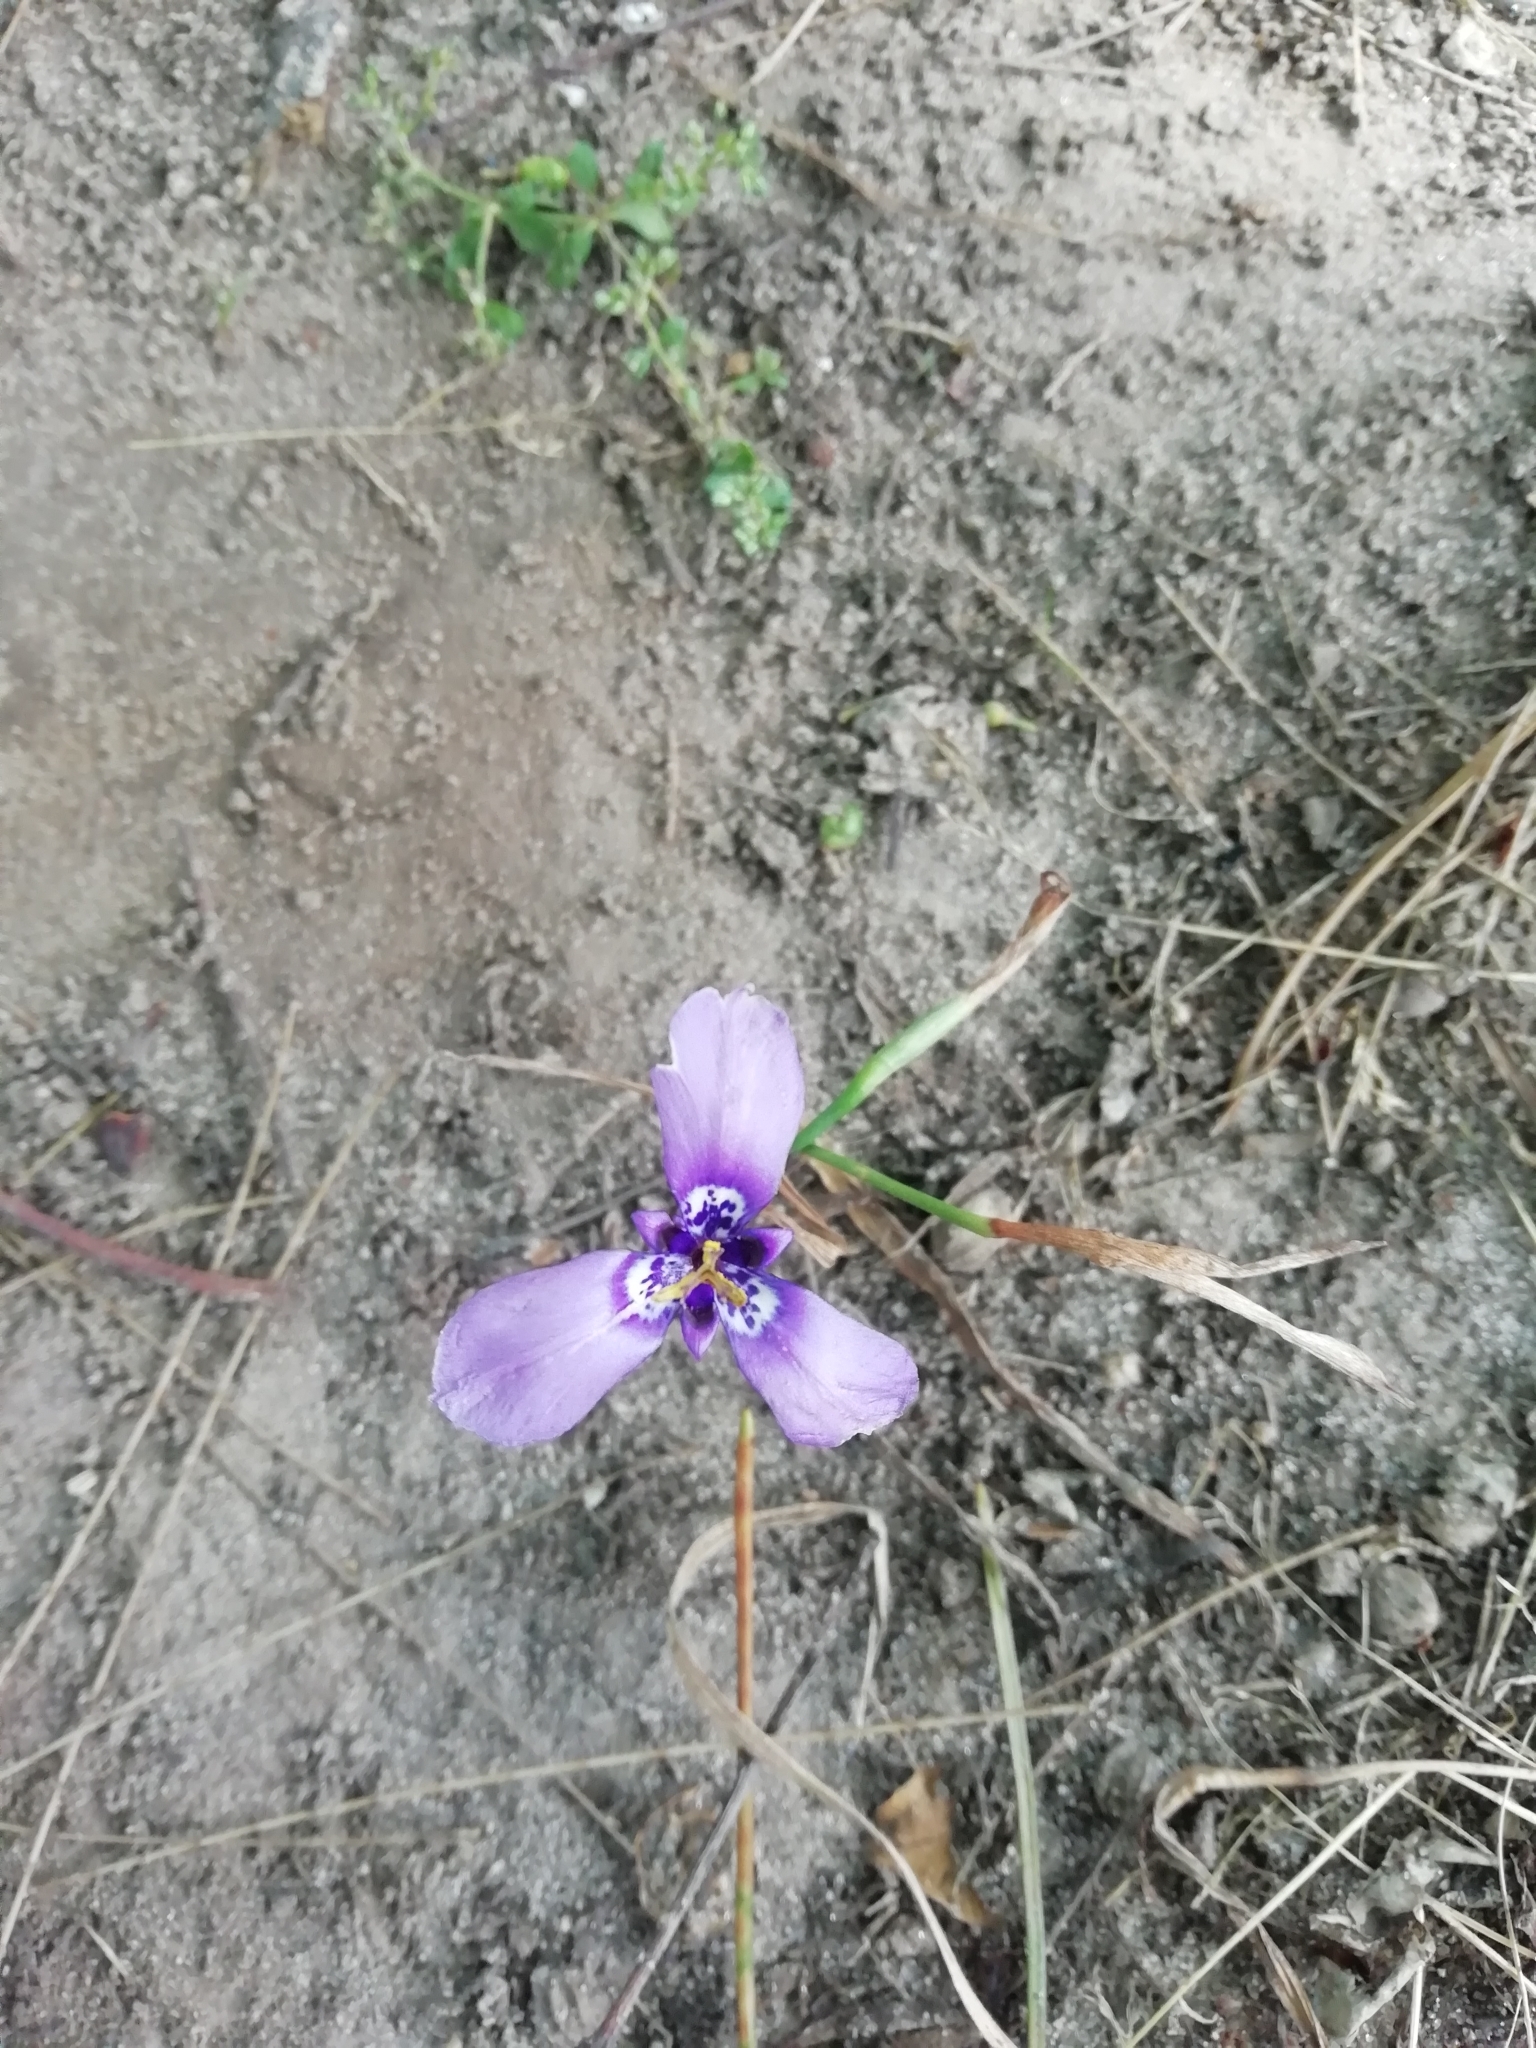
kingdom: Plantae
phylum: Tracheophyta
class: Liliopsida
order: Asparagales
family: Iridaceae
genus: Herbertia
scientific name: Herbertia lahue
